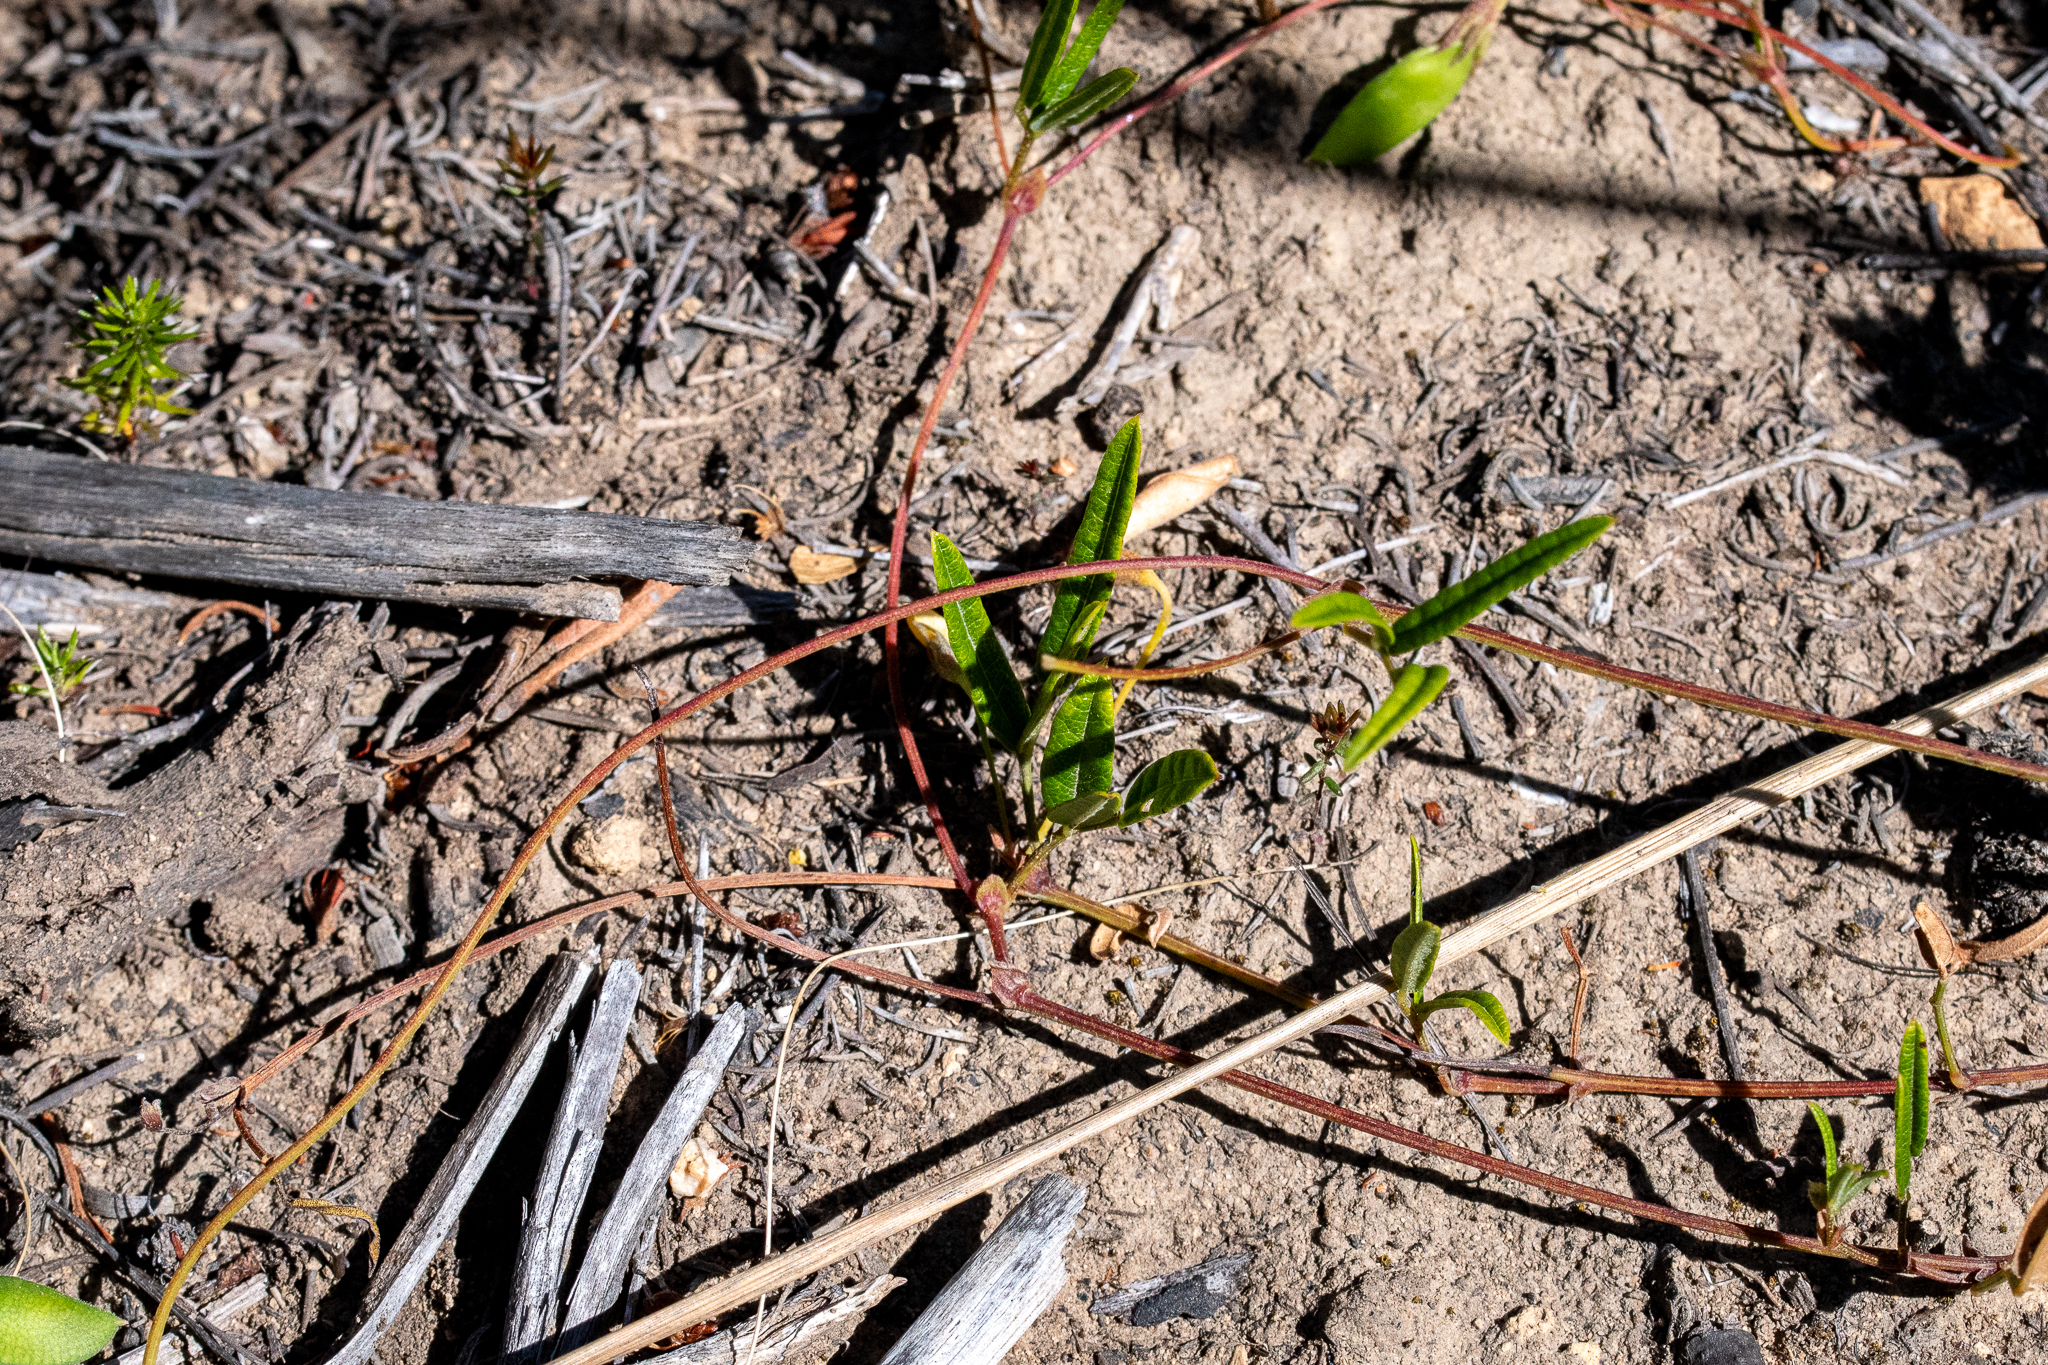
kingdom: Plantae
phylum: Tracheophyta
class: Magnoliopsida
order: Fabales
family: Fabaceae
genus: Rhynchosia
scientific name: Rhynchosia leucoscias
